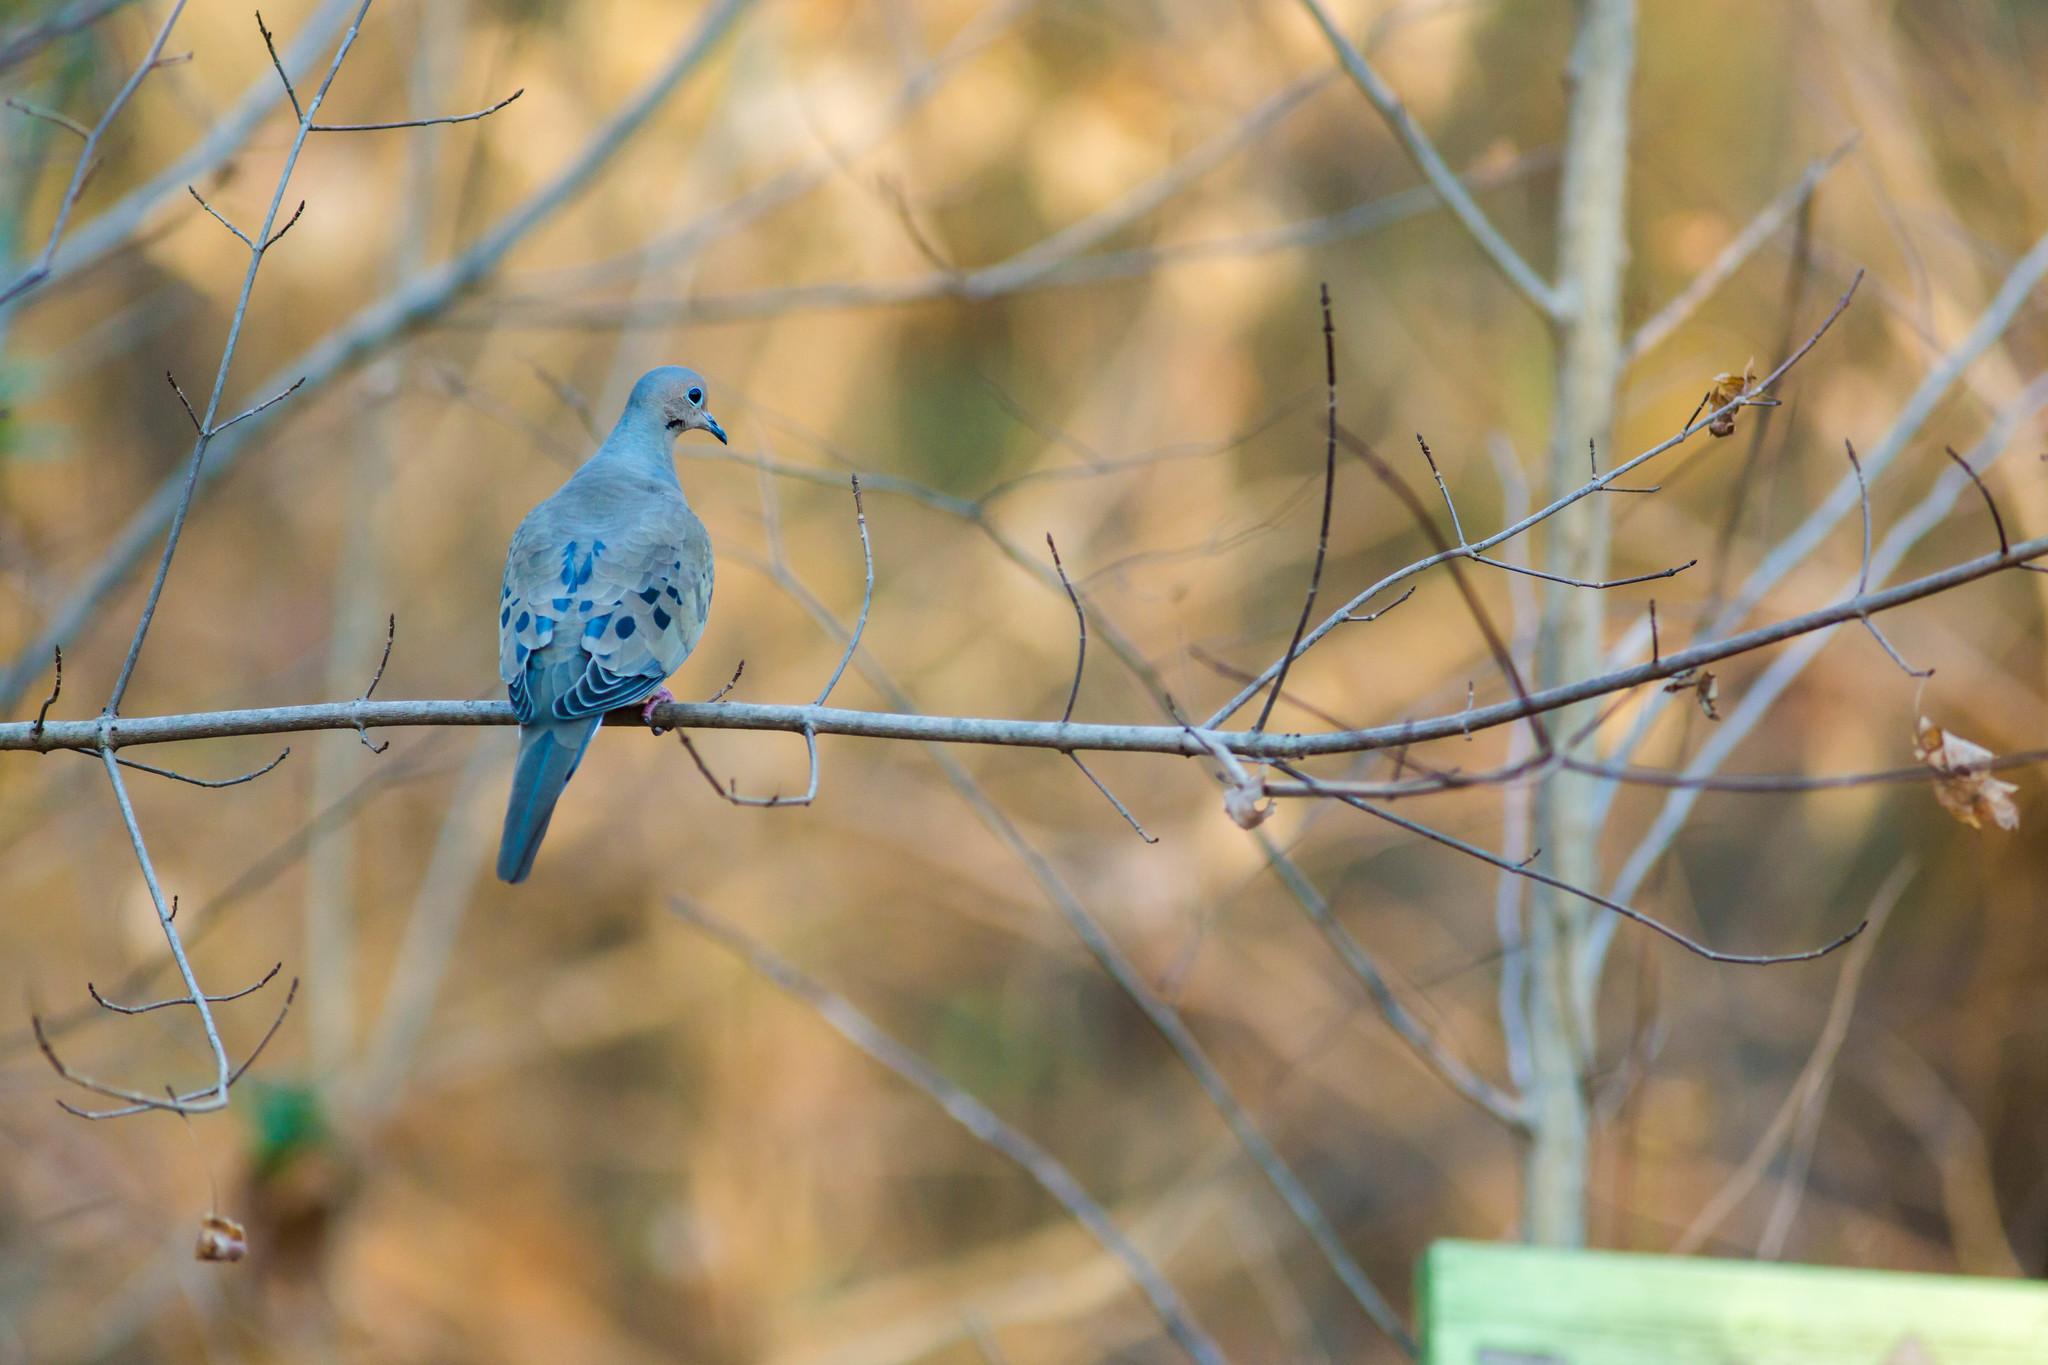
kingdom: Animalia
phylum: Chordata
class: Aves
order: Columbiformes
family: Columbidae
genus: Zenaida
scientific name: Zenaida macroura
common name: Mourning dove
